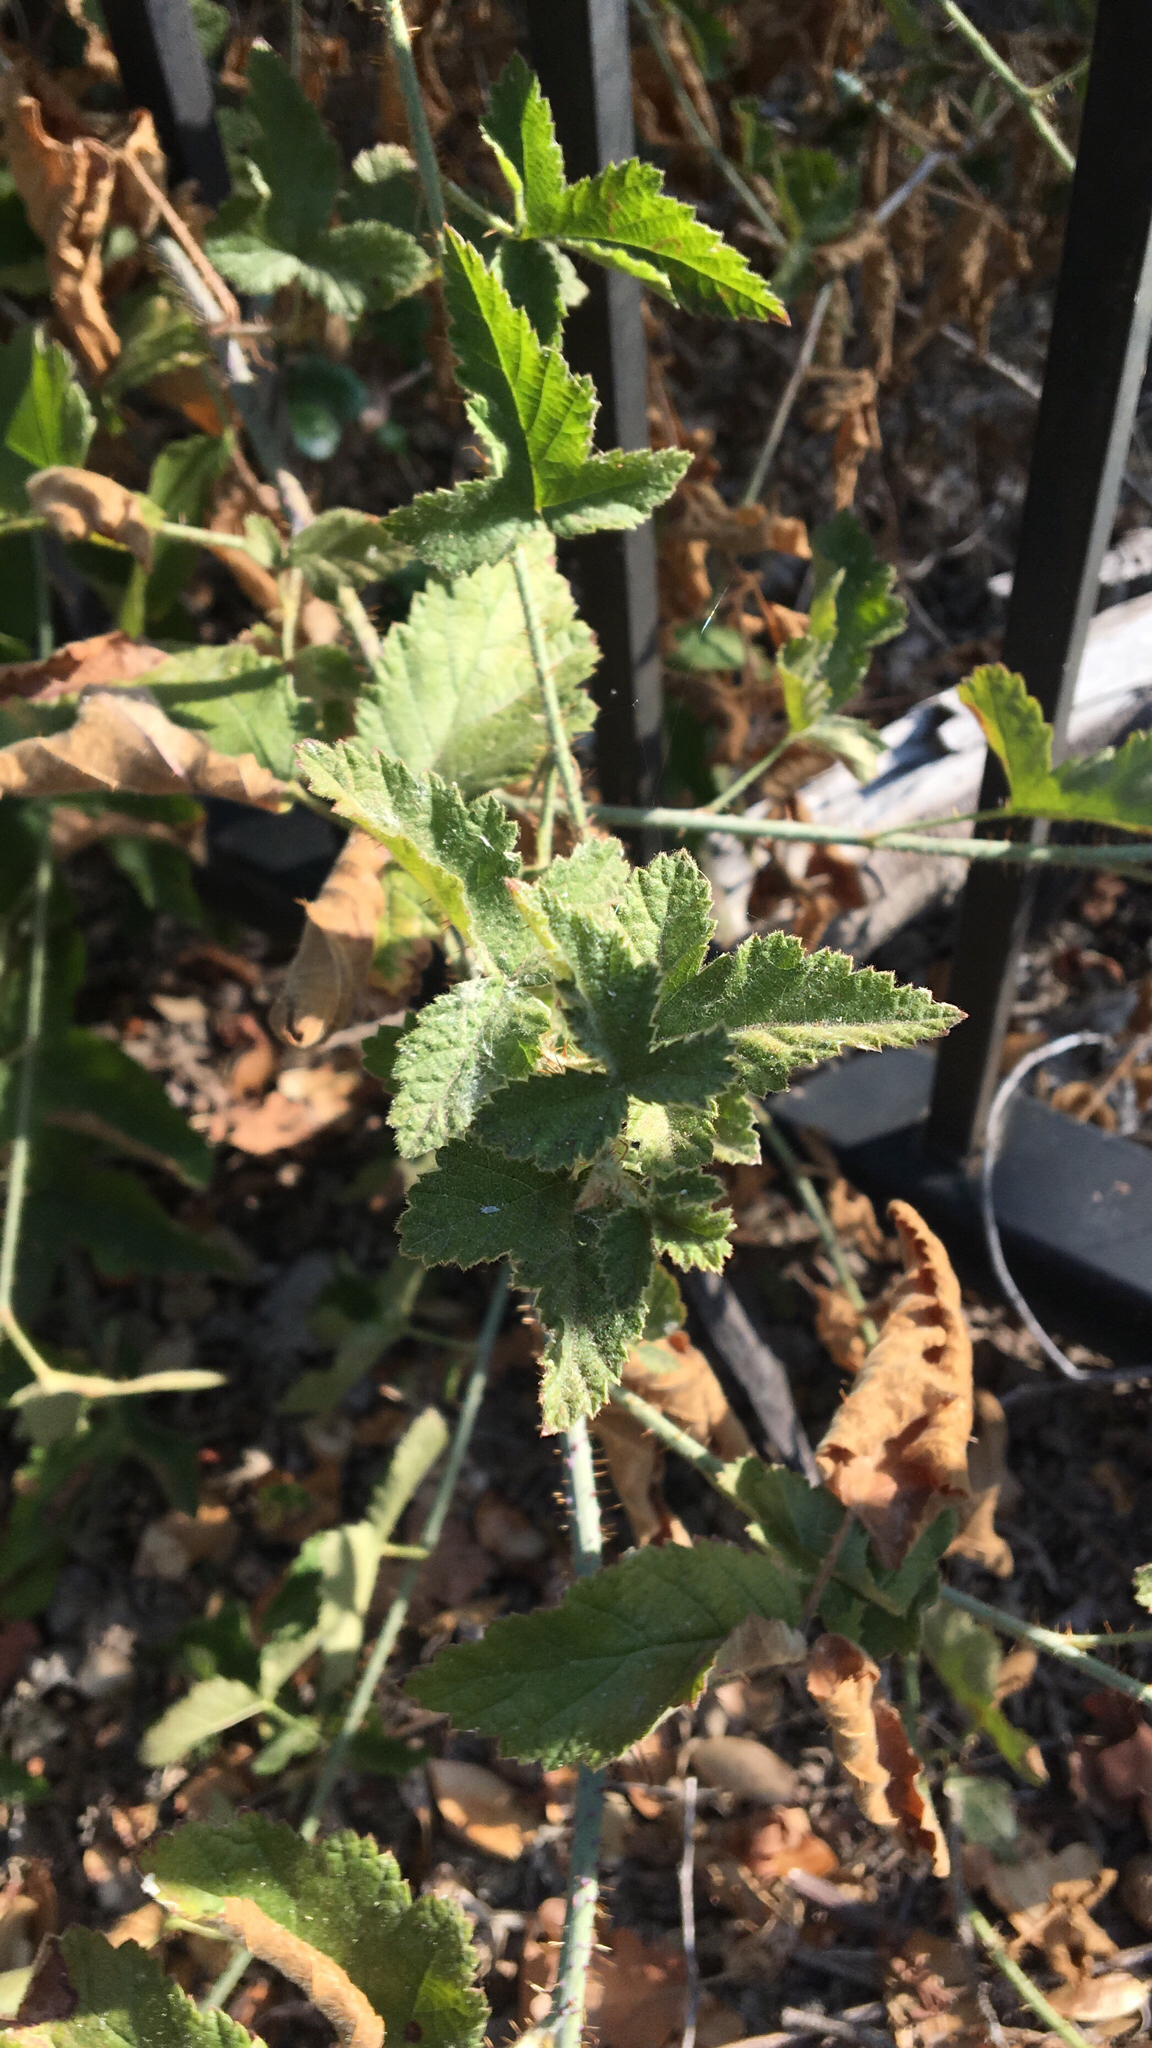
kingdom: Plantae
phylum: Tracheophyta
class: Magnoliopsida
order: Rosales
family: Rosaceae
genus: Rubus
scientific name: Rubus ursinus
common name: Pacific blackberry
